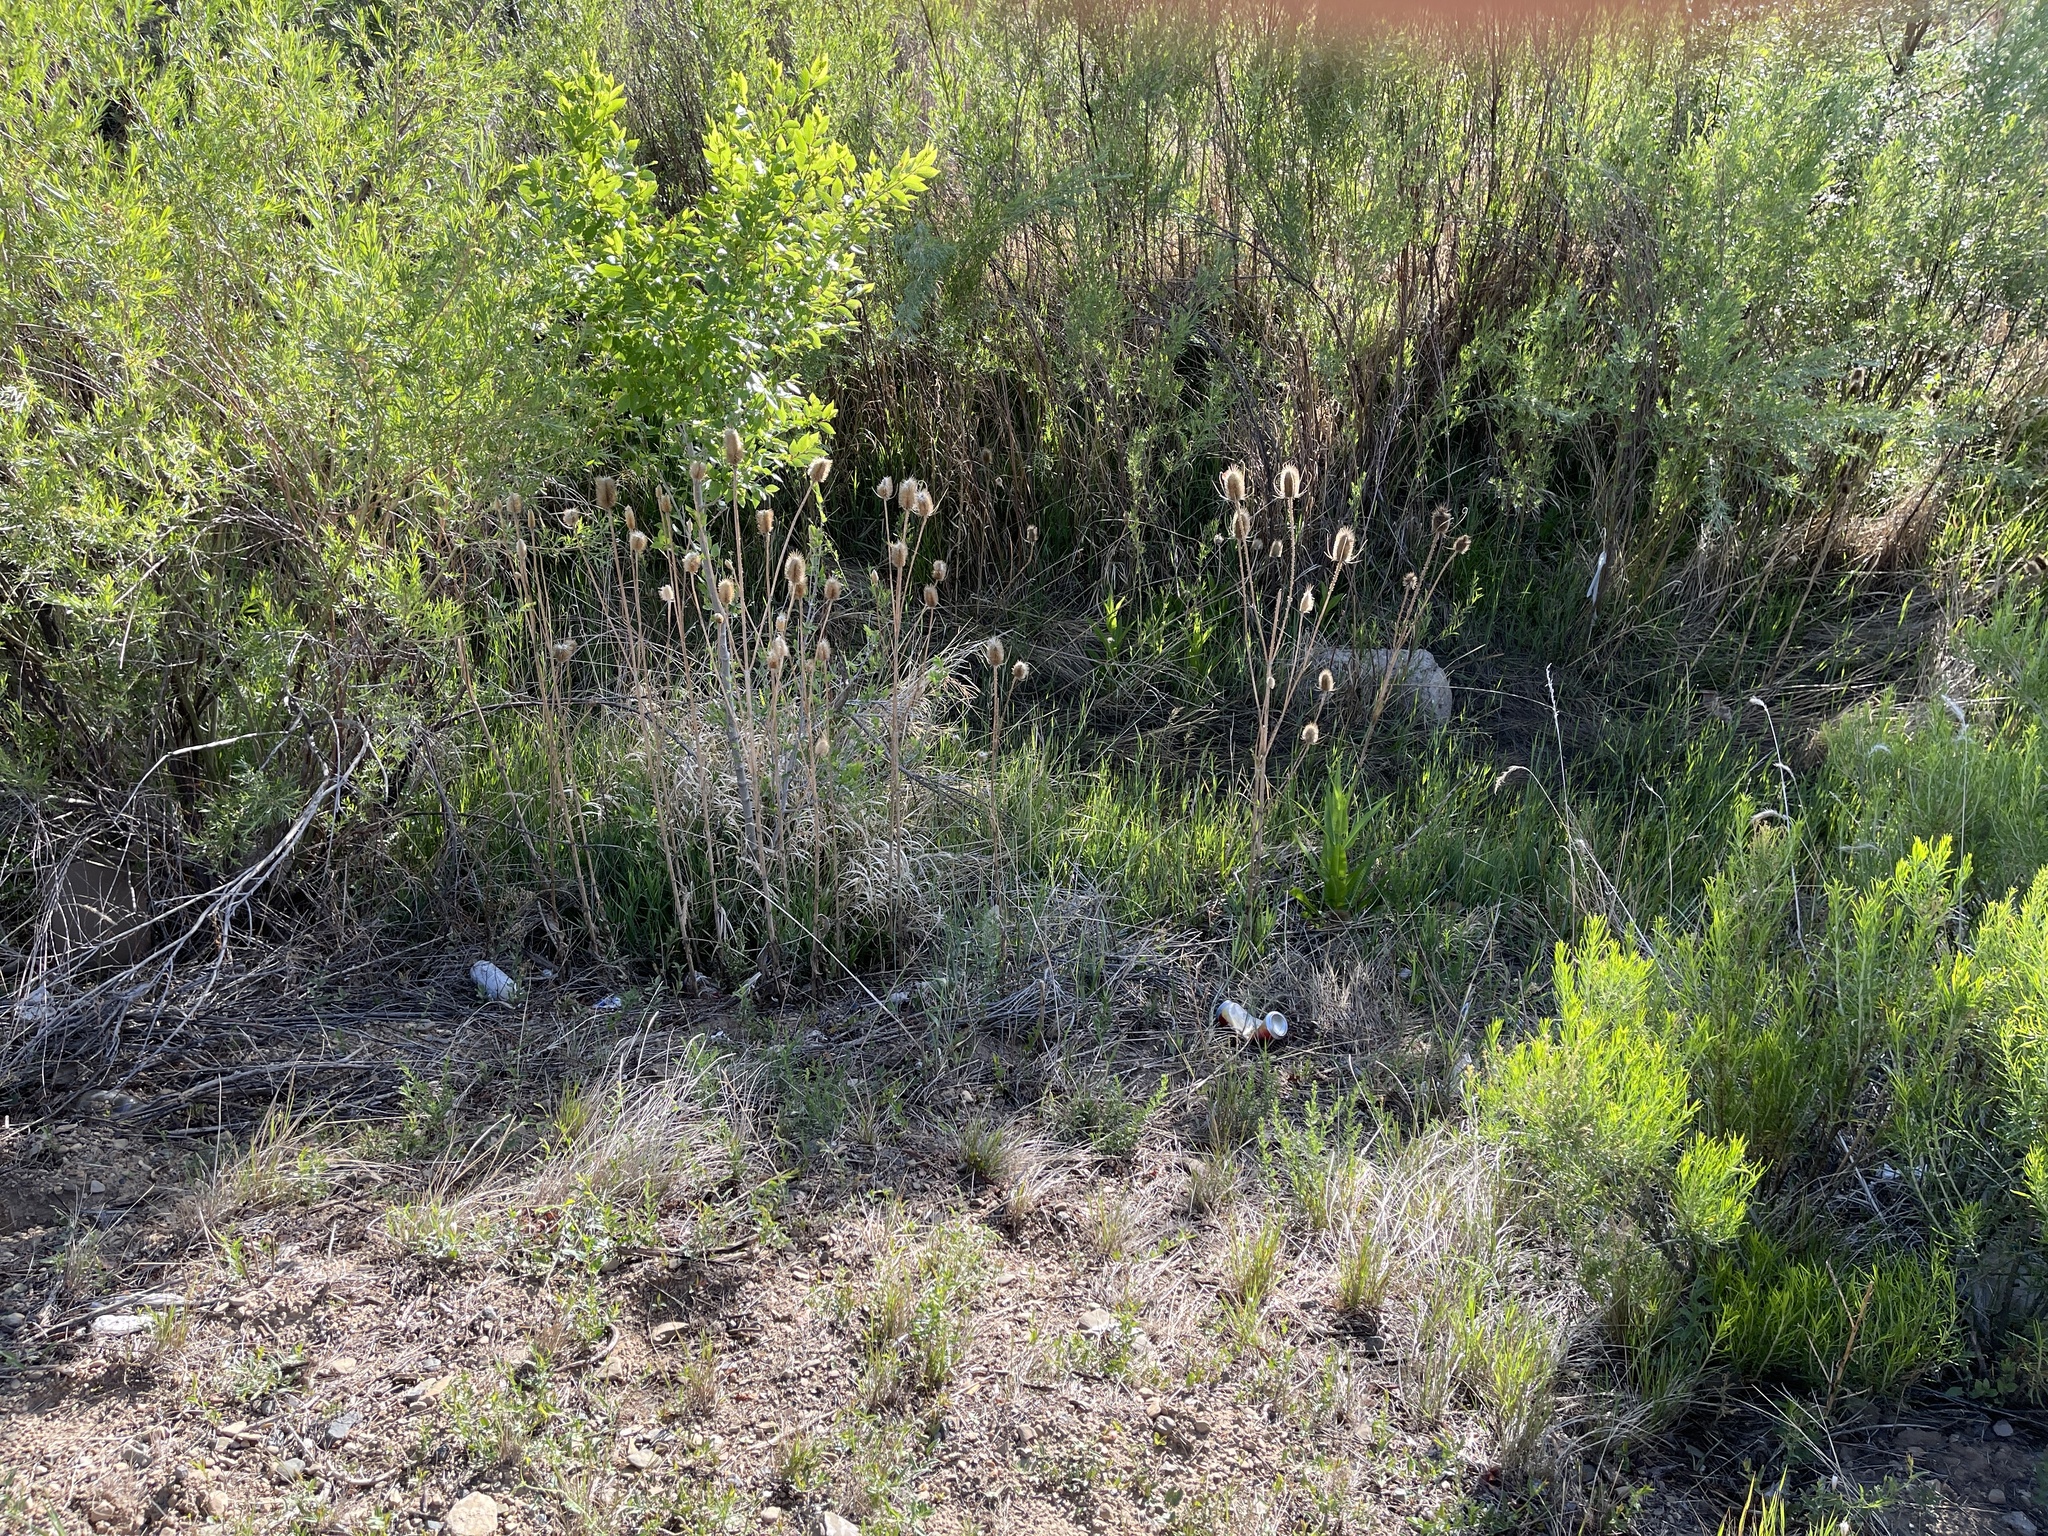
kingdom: Plantae
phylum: Tracheophyta
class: Magnoliopsida
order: Dipsacales
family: Caprifoliaceae
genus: Dipsacus
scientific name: Dipsacus fullonum
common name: Teasel
